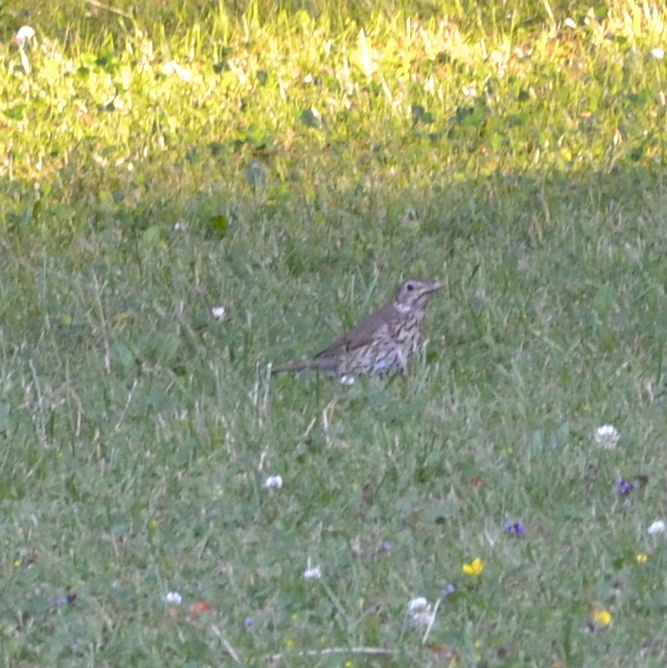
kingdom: Animalia
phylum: Chordata
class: Aves
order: Passeriformes
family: Turdidae
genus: Turdus
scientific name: Turdus philomelos
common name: Song thrush
